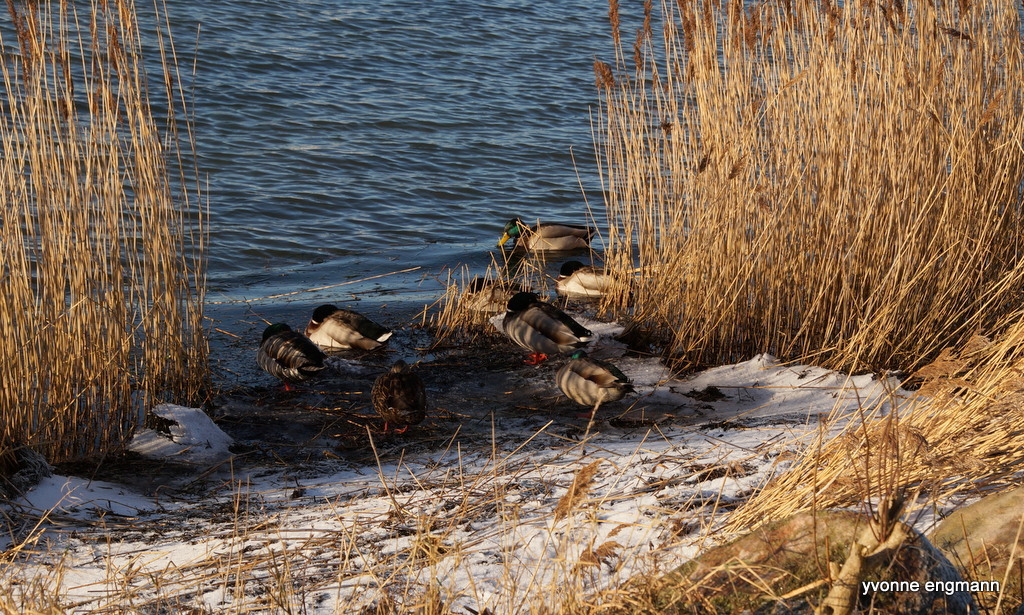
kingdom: Animalia
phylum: Chordata
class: Aves
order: Anseriformes
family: Anatidae
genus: Anas
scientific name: Anas platyrhynchos
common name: Mallard
